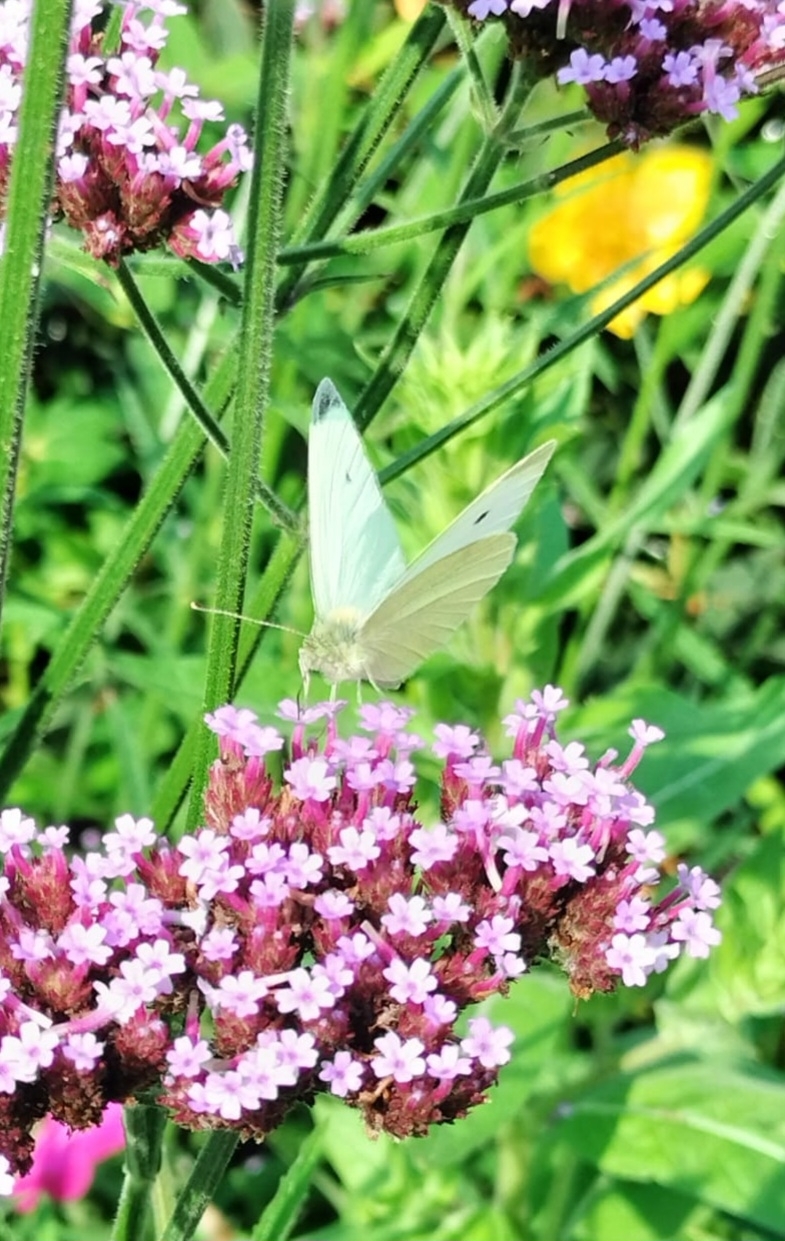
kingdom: Animalia
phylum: Arthropoda
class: Insecta
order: Lepidoptera
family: Pieridae
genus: Pieris
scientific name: Pieris rapae
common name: Small white
